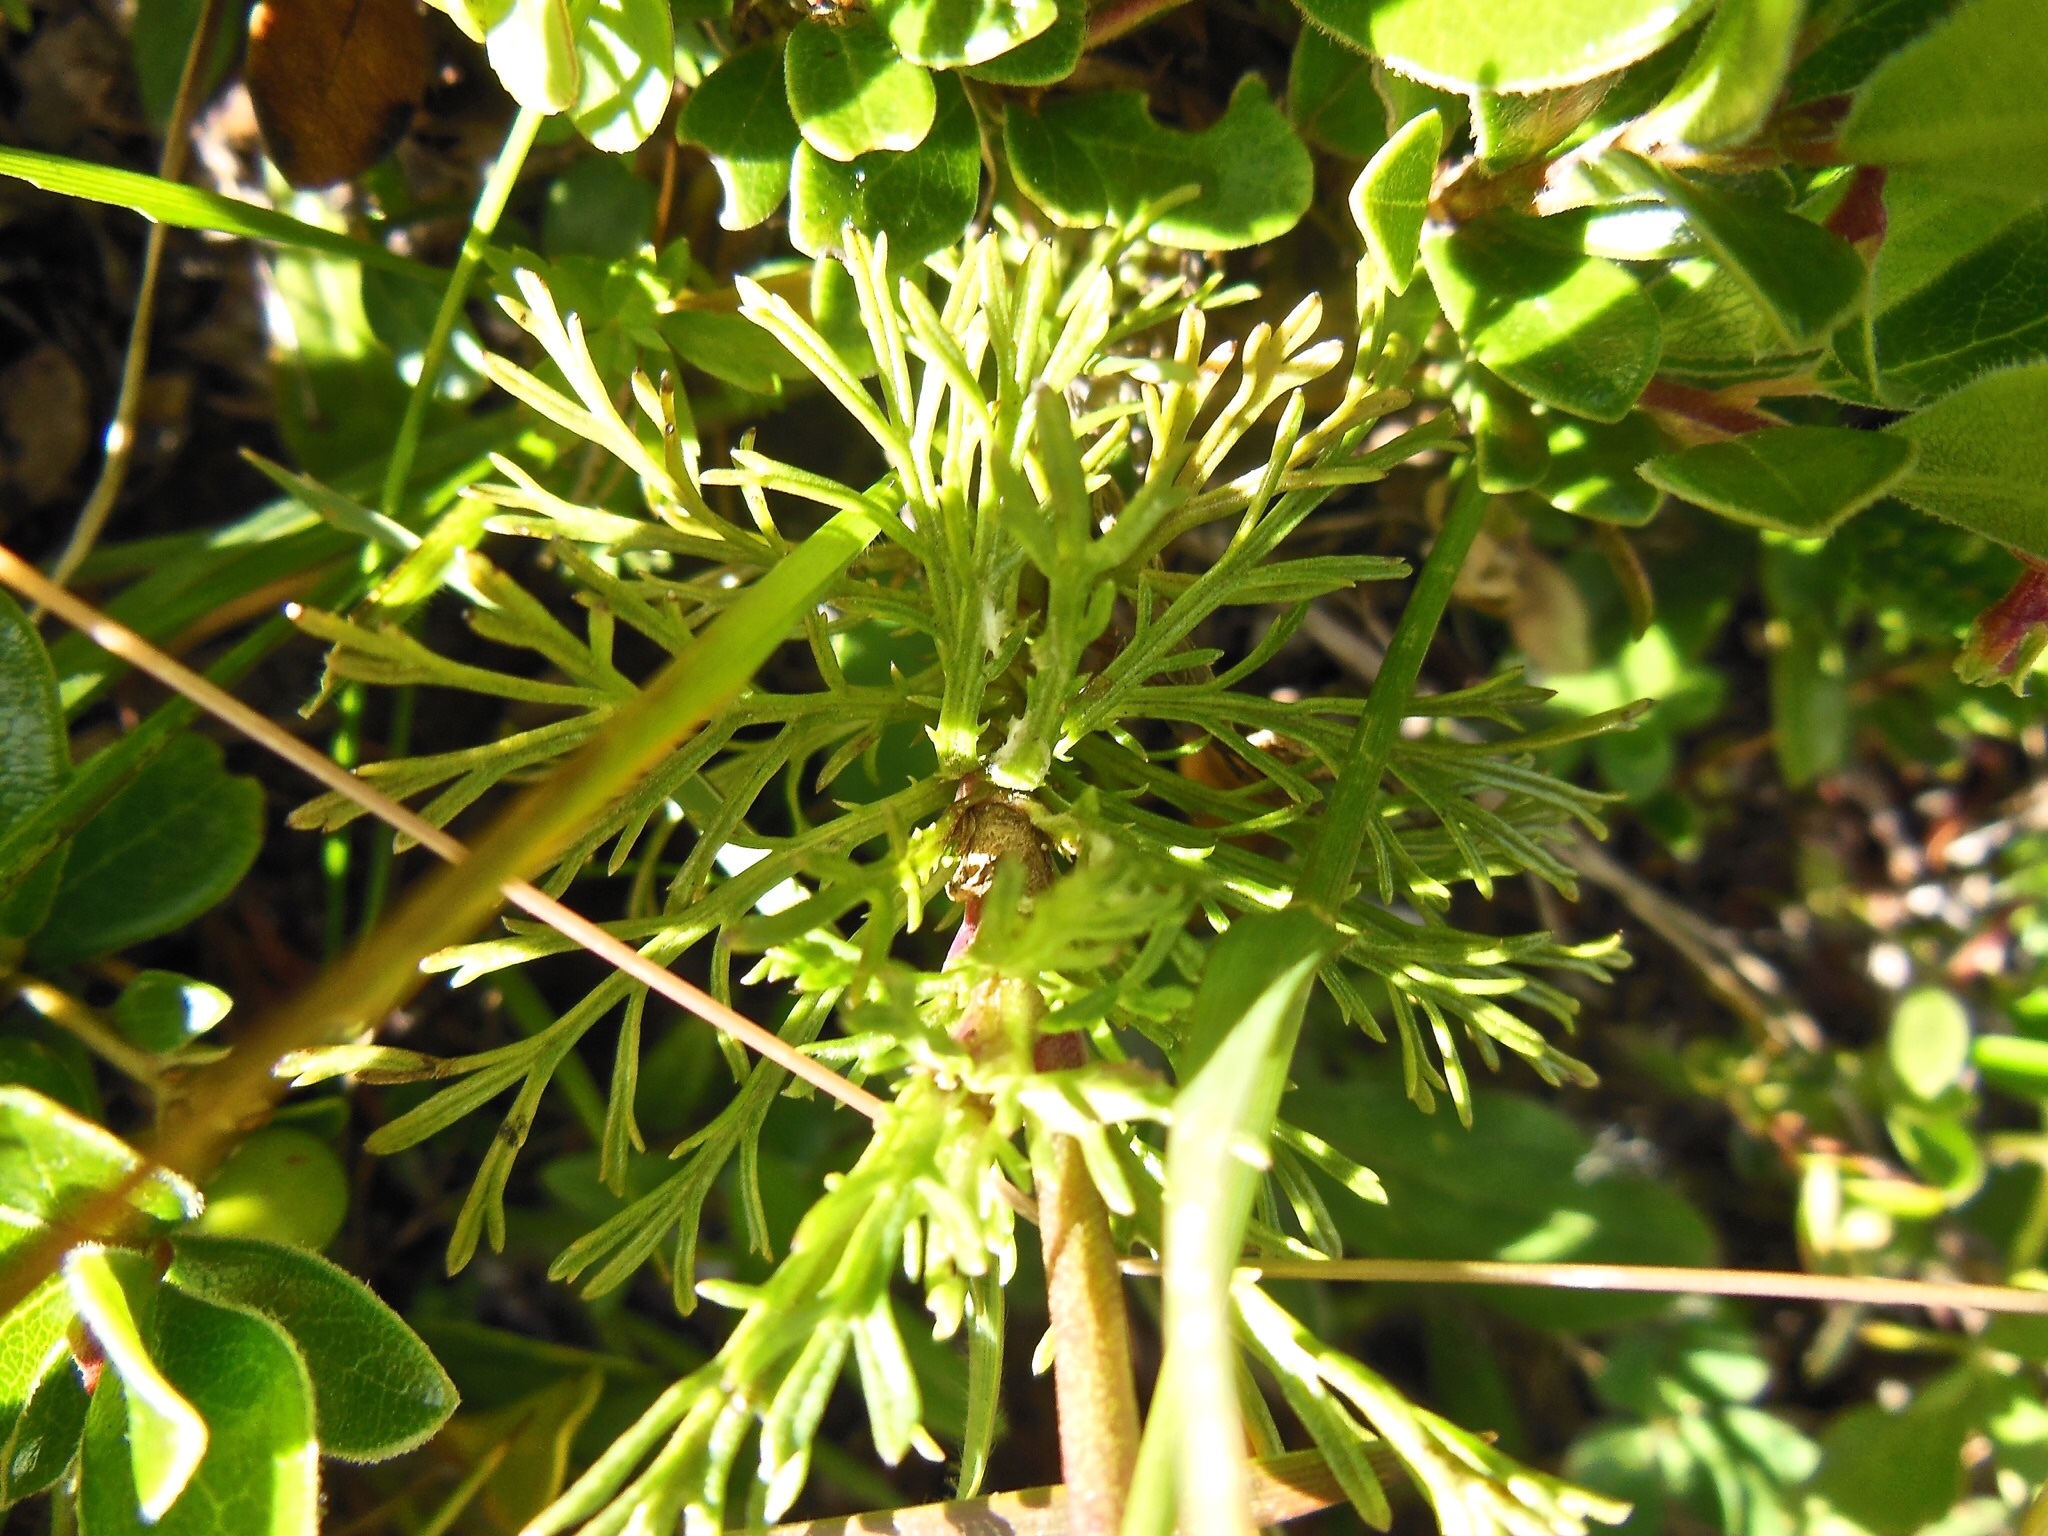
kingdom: Plantae
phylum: Tracheophyta
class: Magnoliopsida
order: Asterales
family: Asteraceae
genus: Jacobaea
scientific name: Jacobaea abrotanifolia
